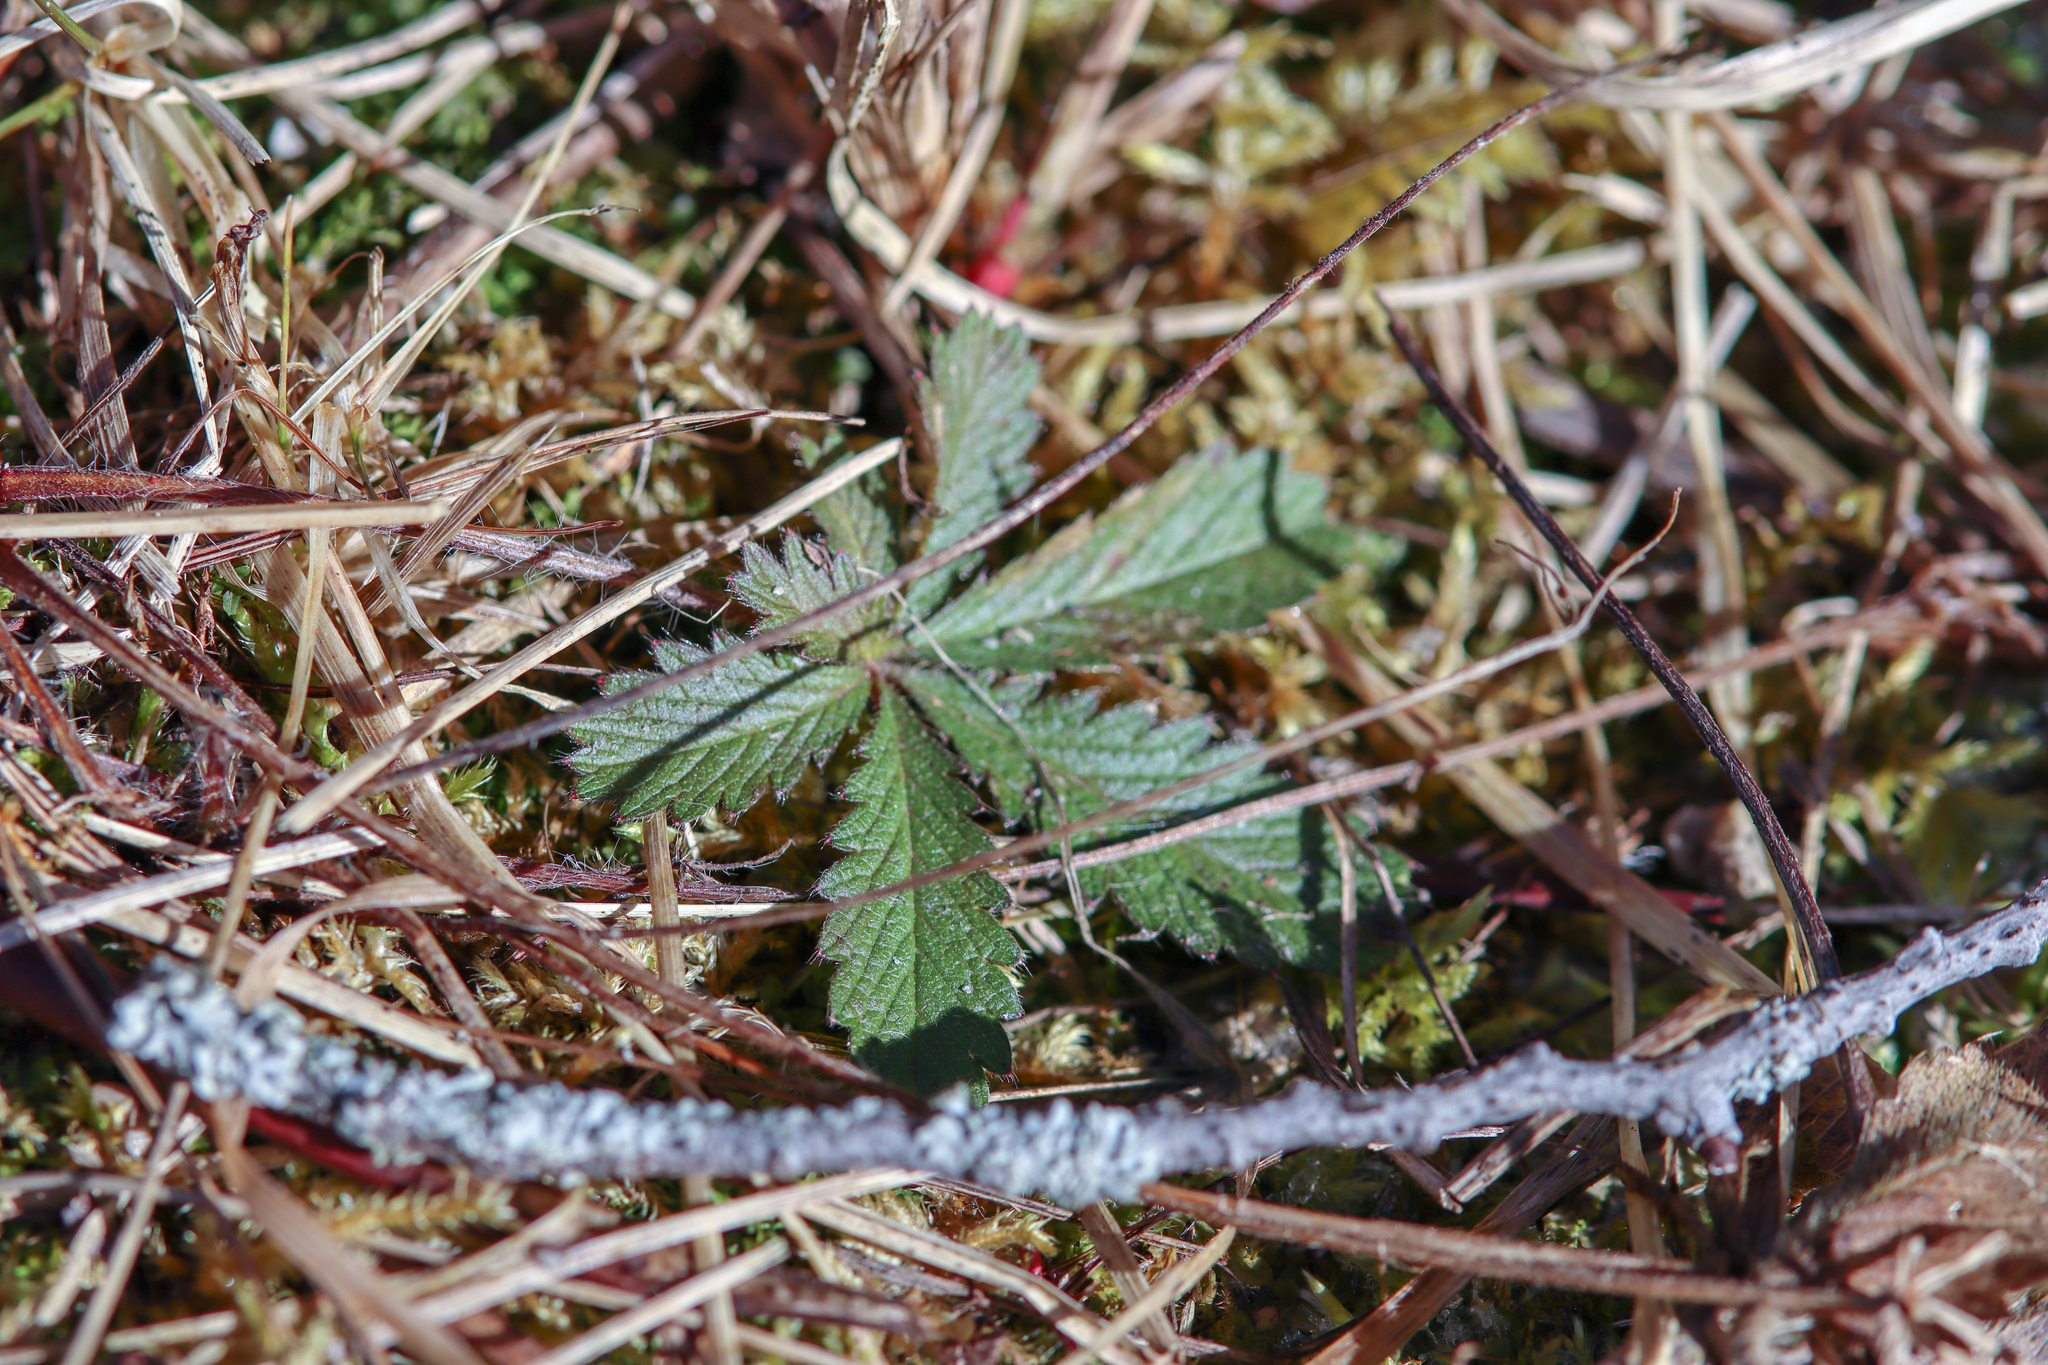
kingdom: Plantae
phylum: Tracheophyta
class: Magnoliopsida
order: Rosales
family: Rosaceae
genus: Potentilla
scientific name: Potentilla recta
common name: Sulphur cinquefoil
